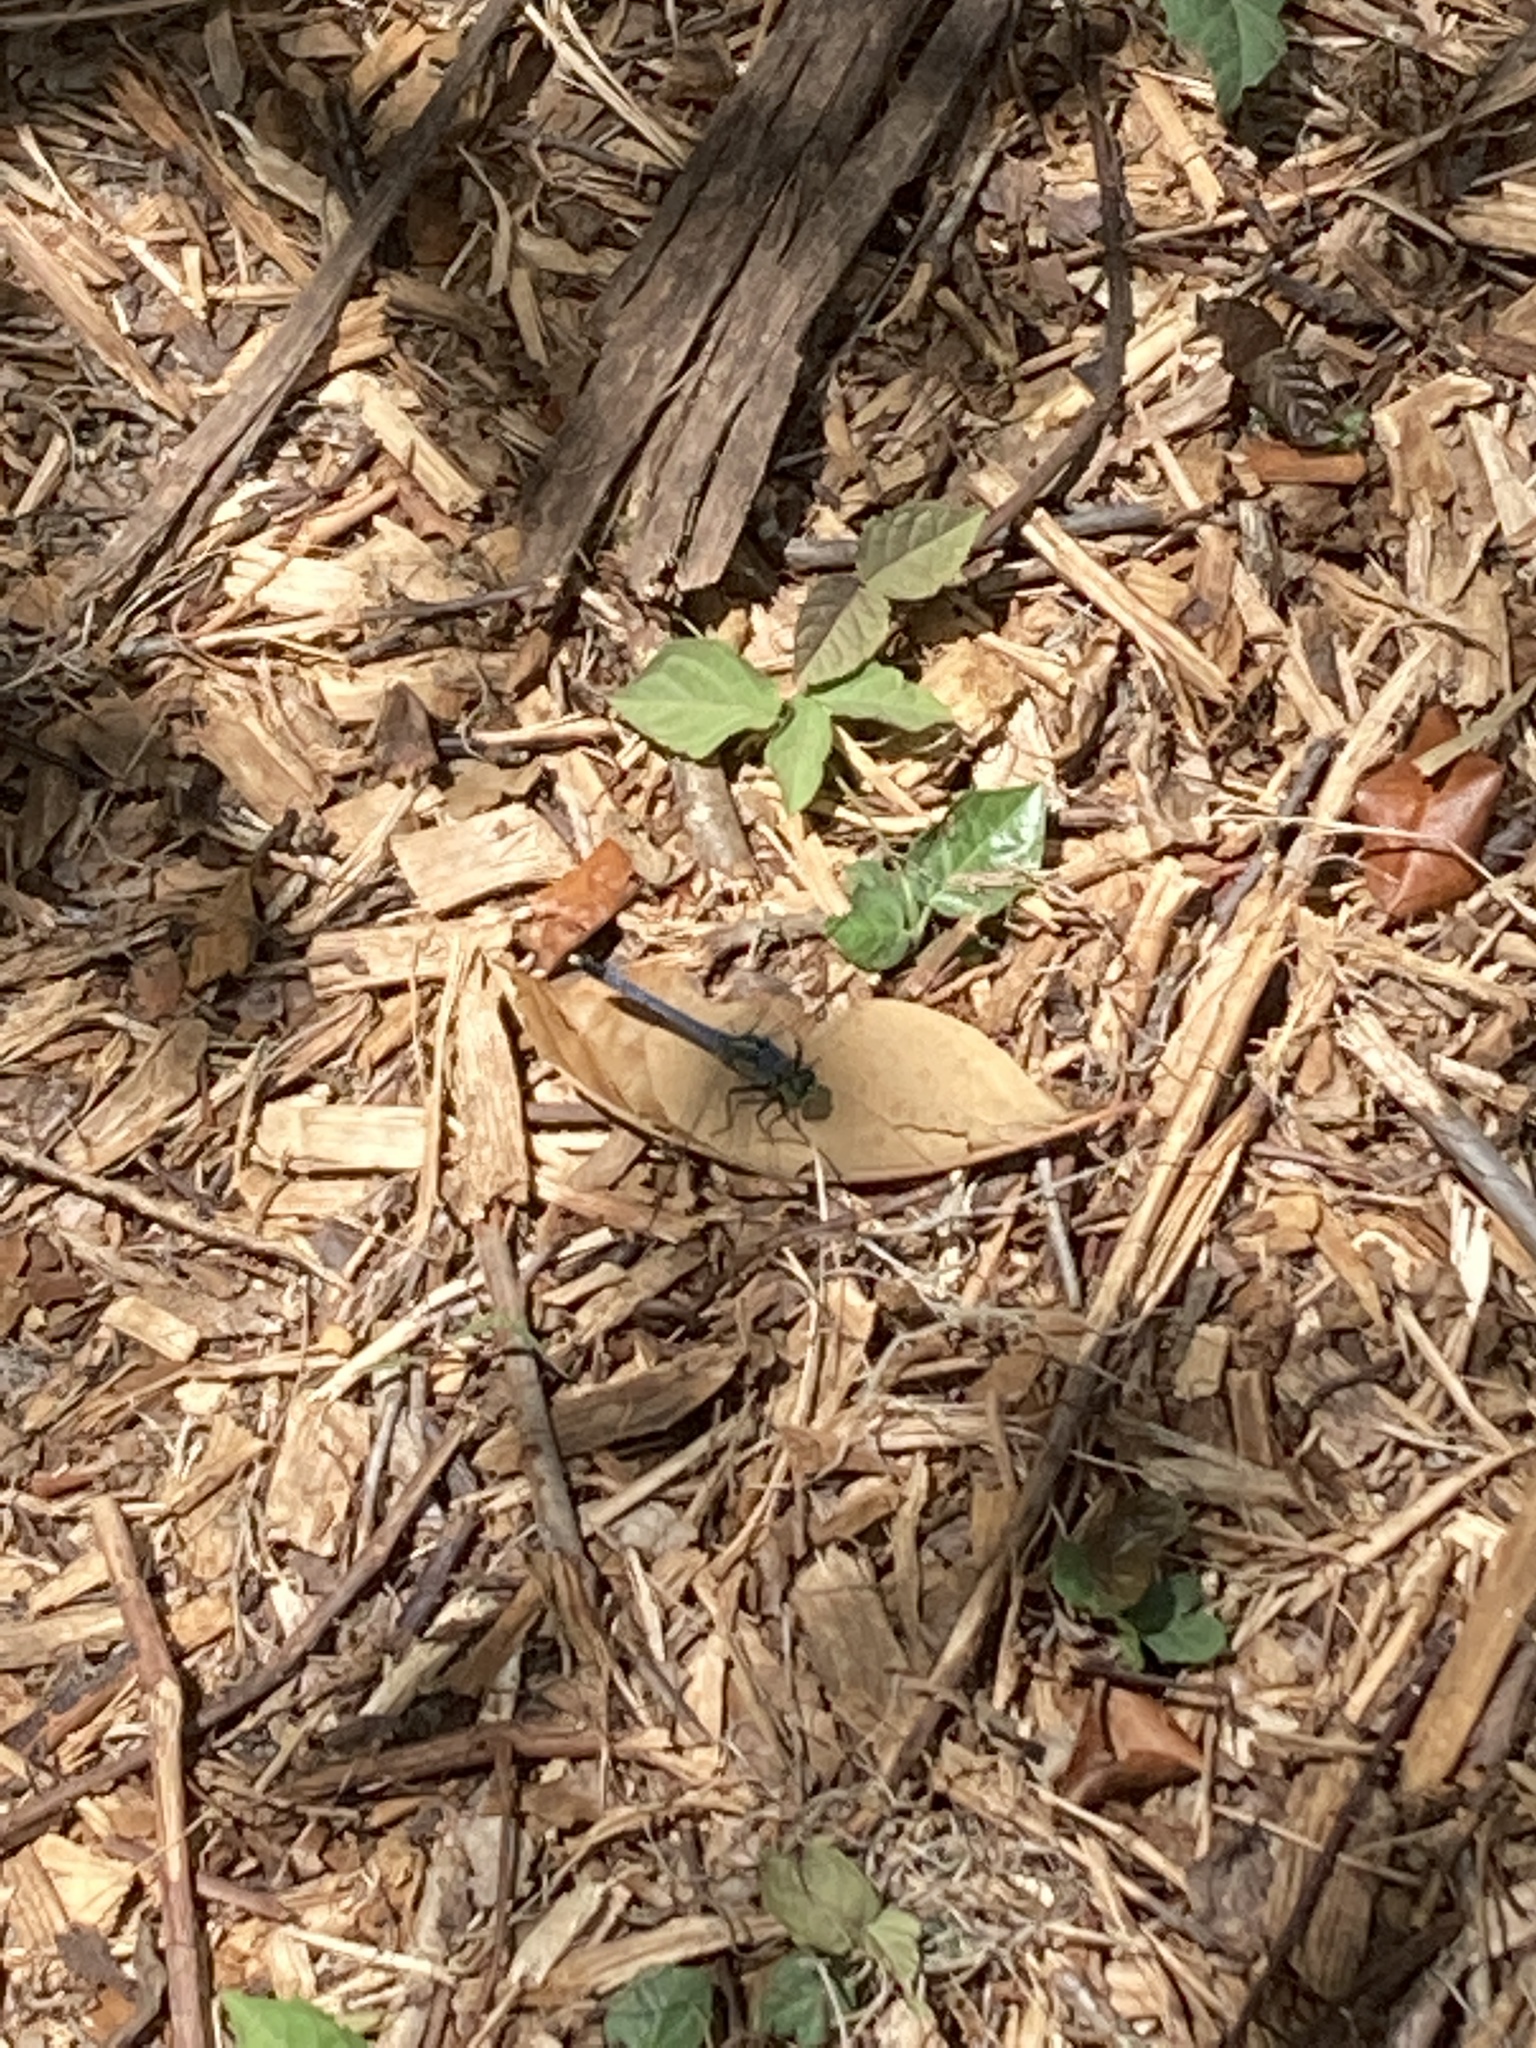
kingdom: Animalia
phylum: Arthropoda
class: Insecta
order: Odonata
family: Libellulidae
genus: Erythemis
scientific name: Erythemis simplicicollis
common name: Eastern pondhawk
